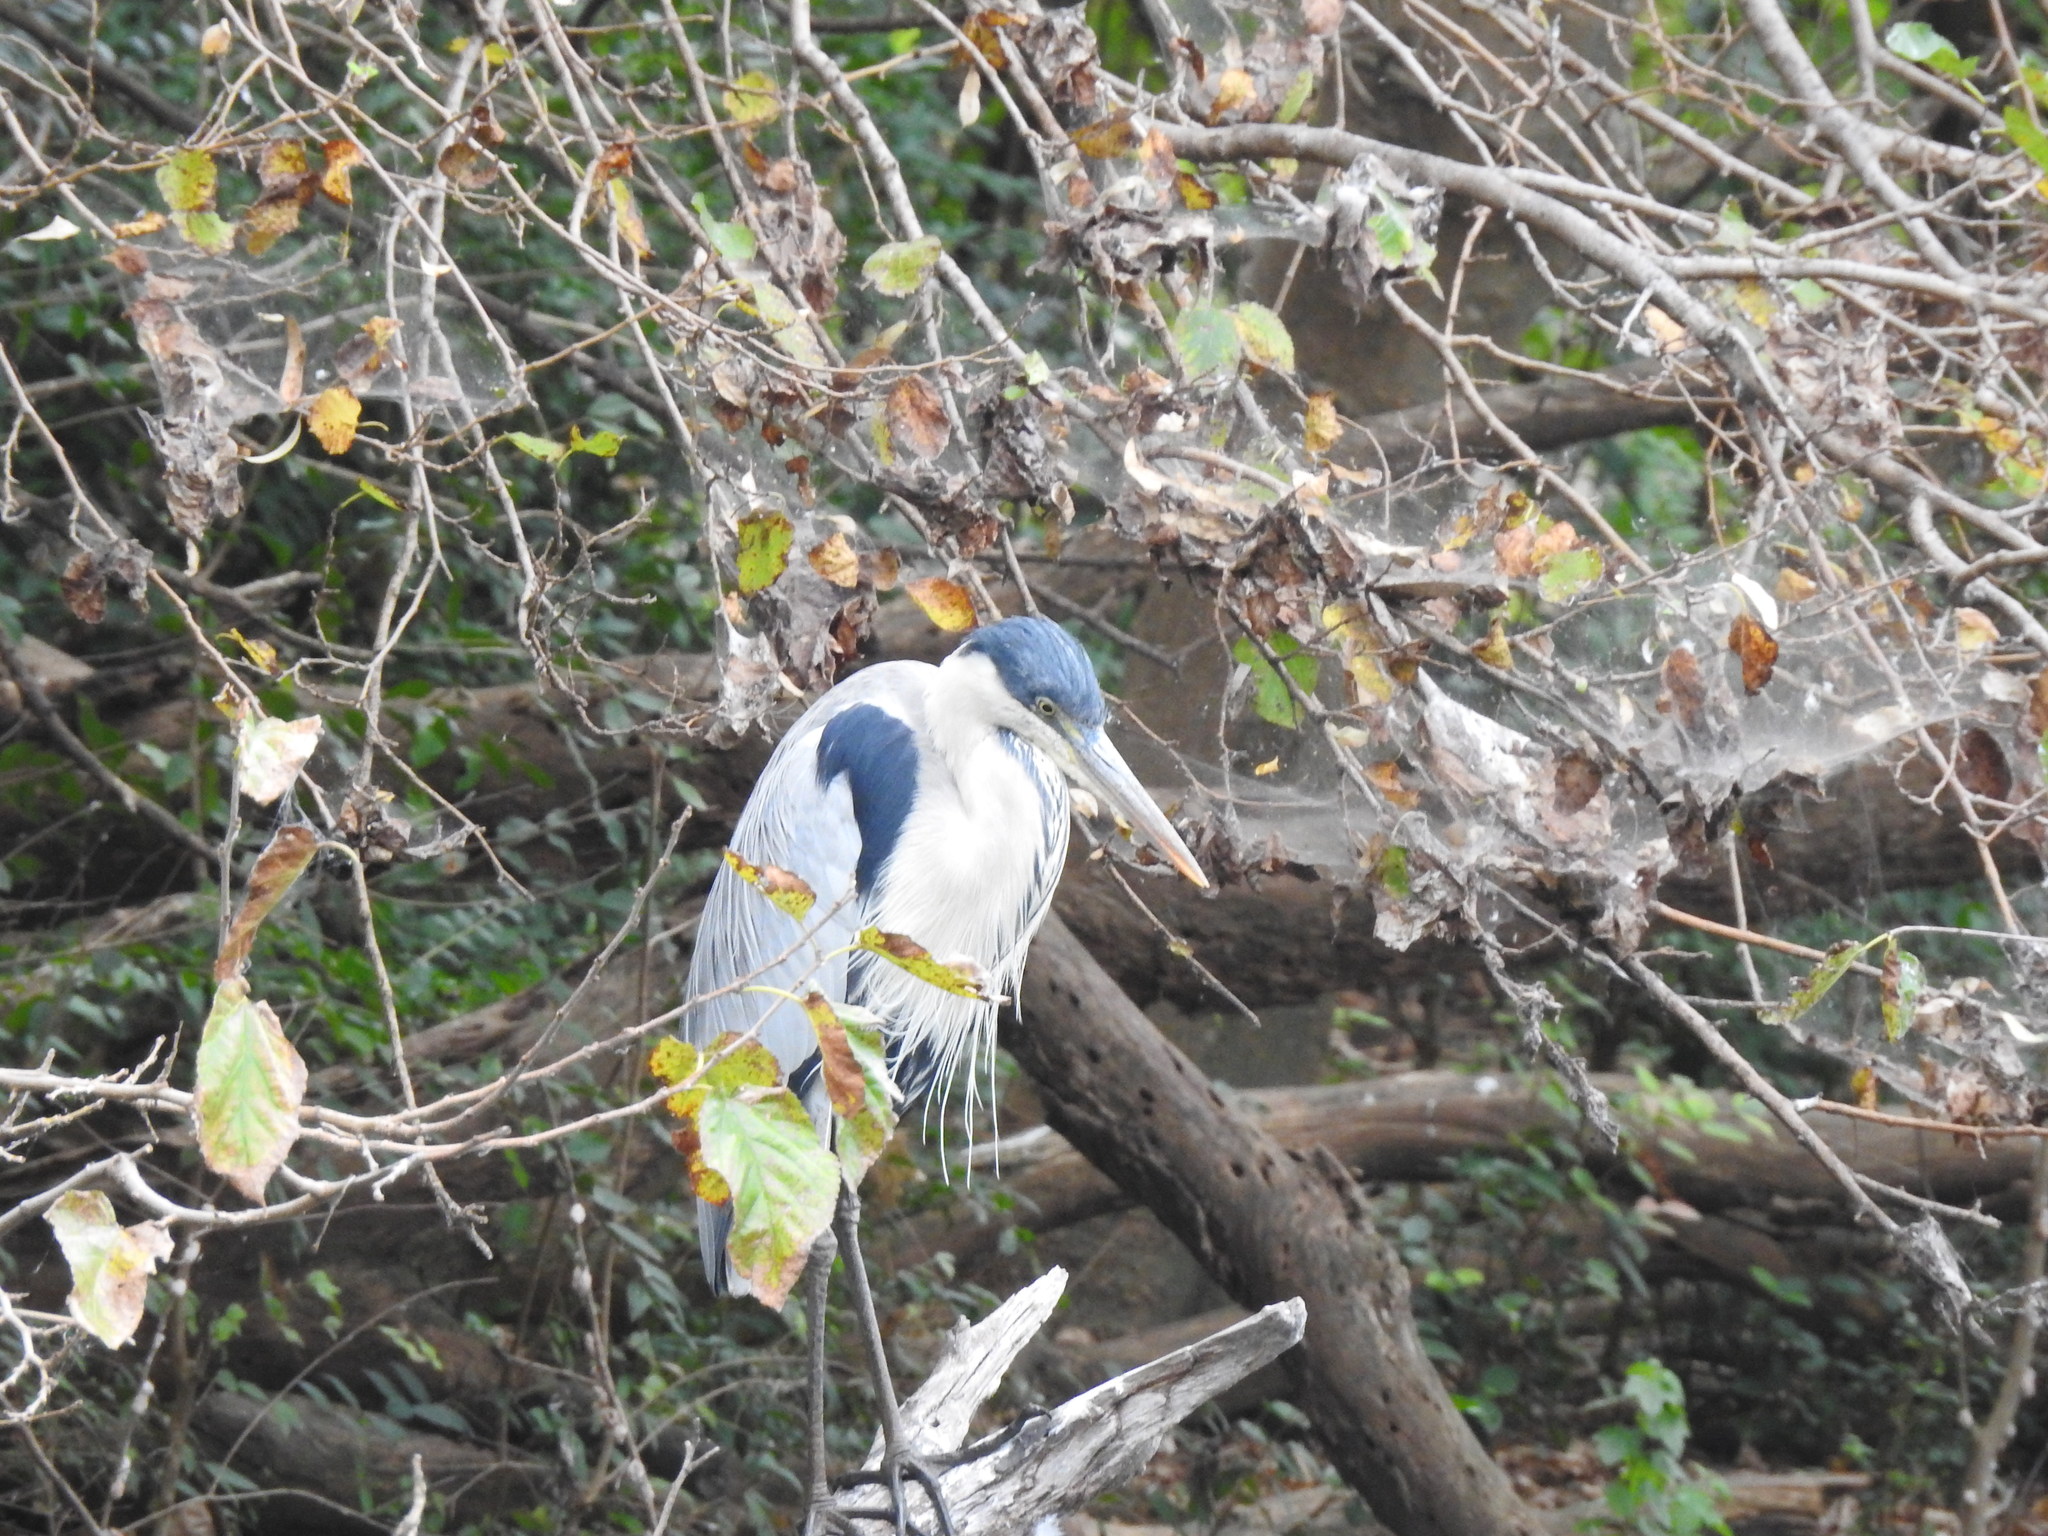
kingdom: Animalia
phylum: Chordata
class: Aves
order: Pelecaniformes
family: Ardeidae
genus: Ardea
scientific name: Ardea cocoi
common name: Cocoi heron
